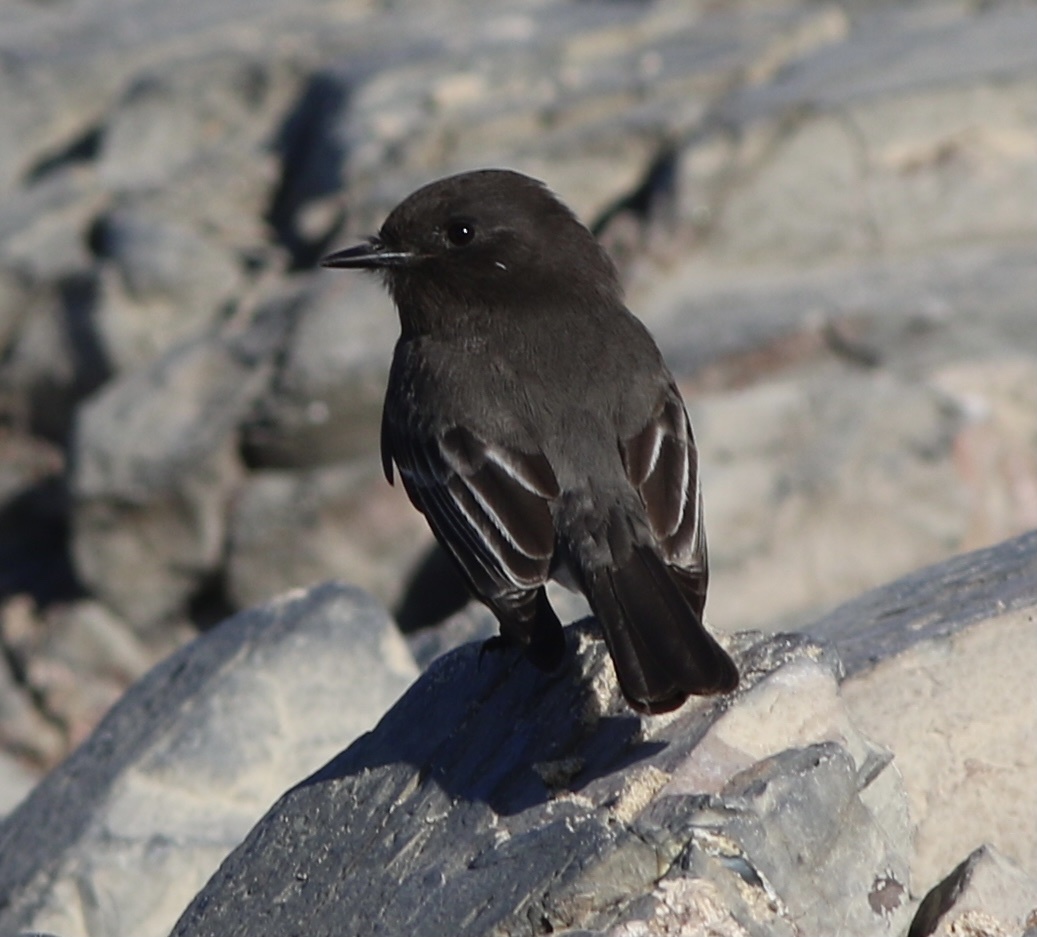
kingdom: Animalia
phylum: Chordata
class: Aves
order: Passeriformes
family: Tyrannidae
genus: Sayornis
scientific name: Sayornis nigricans
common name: Black phoebe
